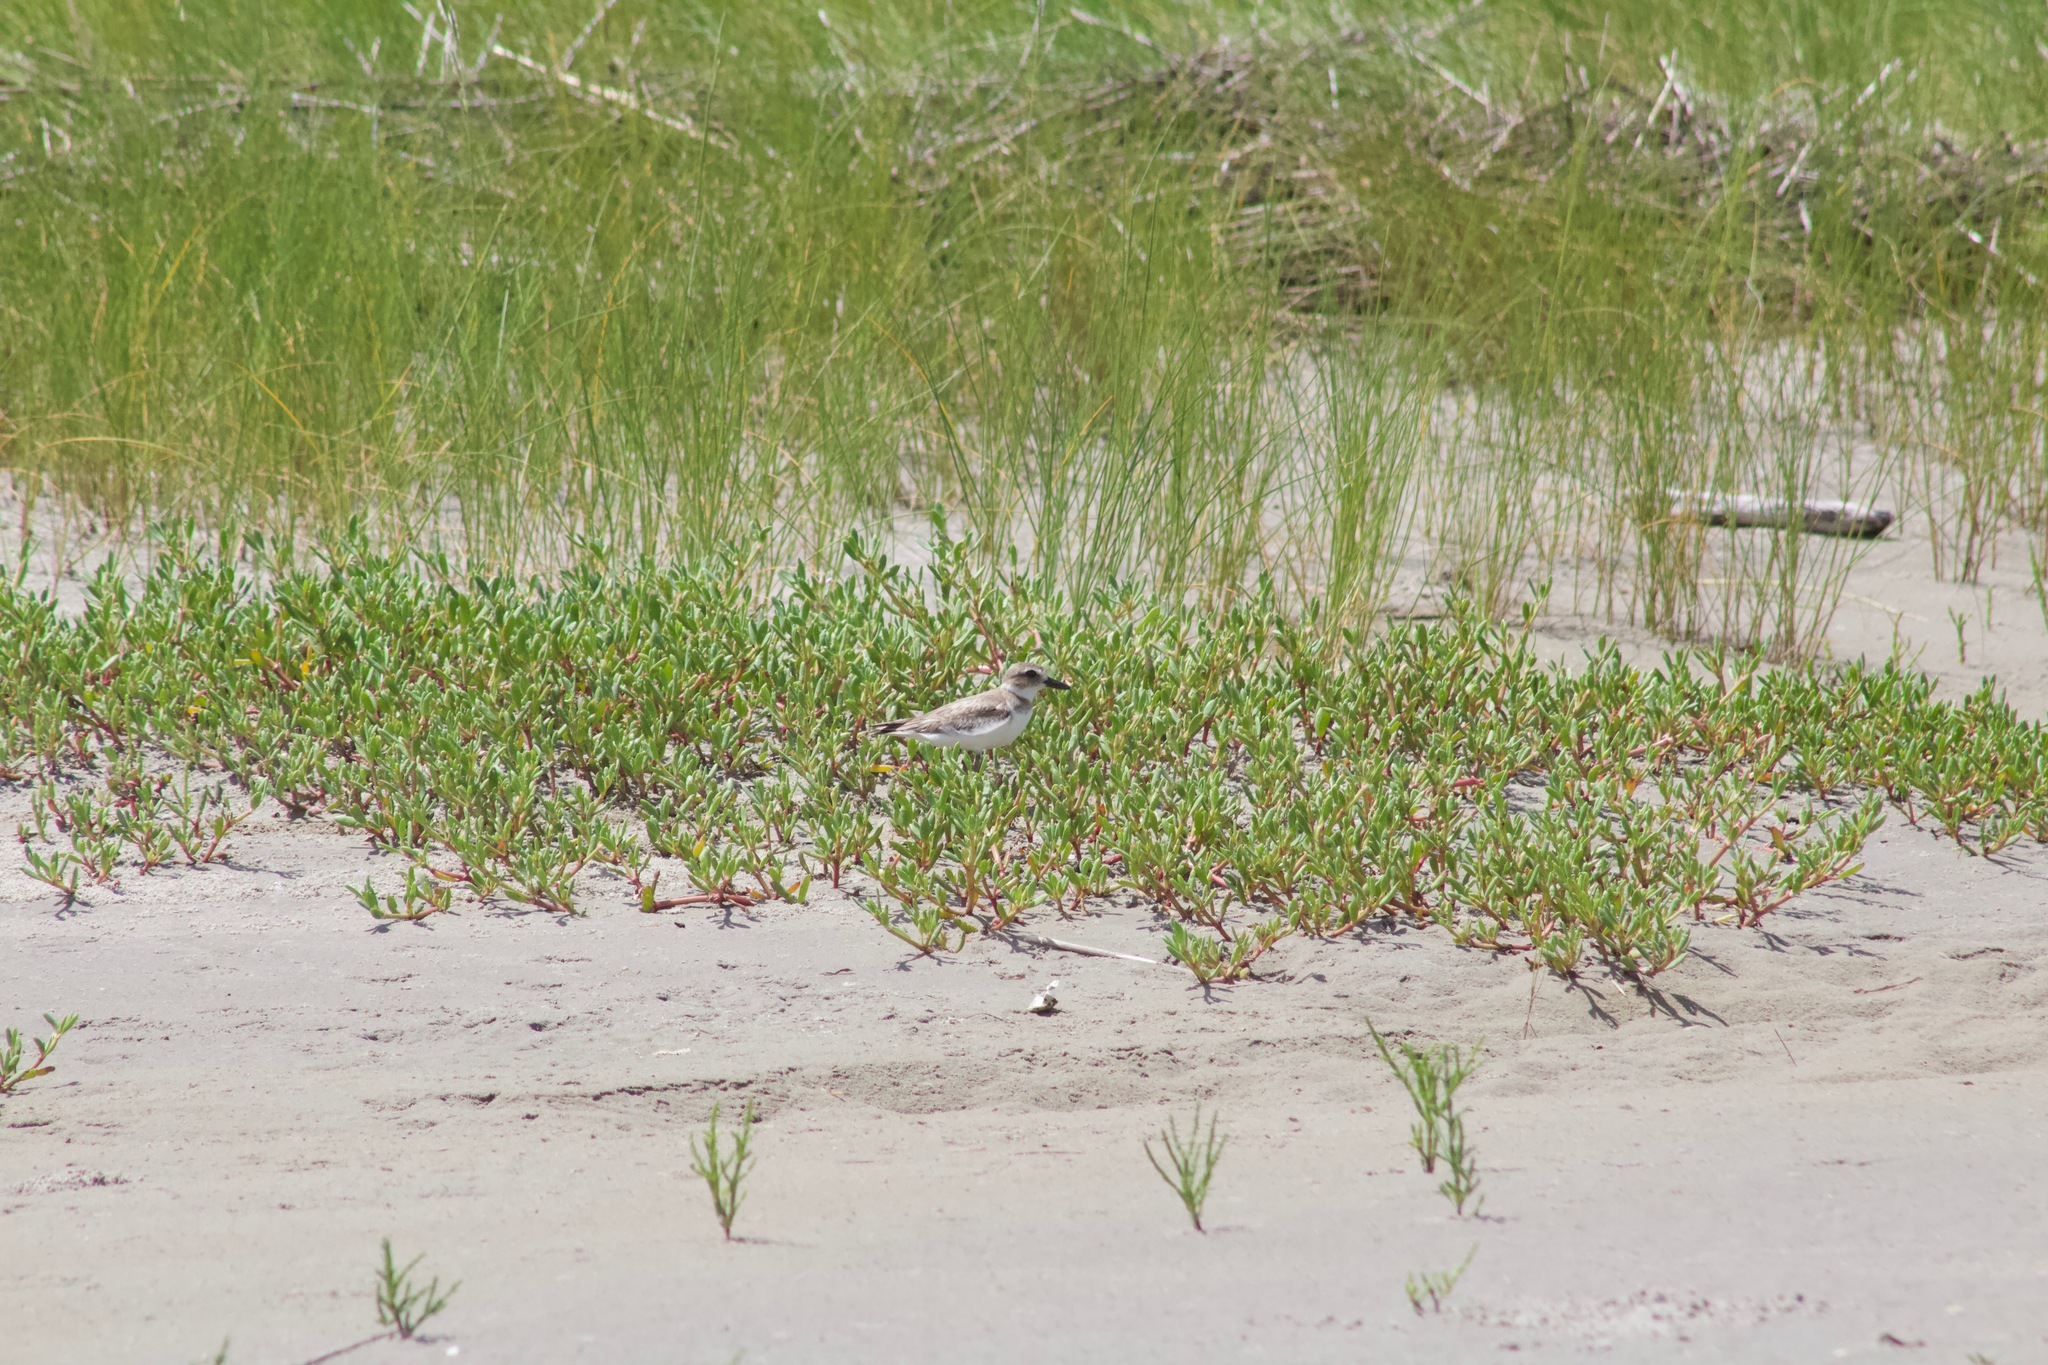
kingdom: Animalia
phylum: Chordata
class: Aves
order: Charadriiformes
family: Charadriidae
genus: Anarhynchus
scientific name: Anarhynchus
